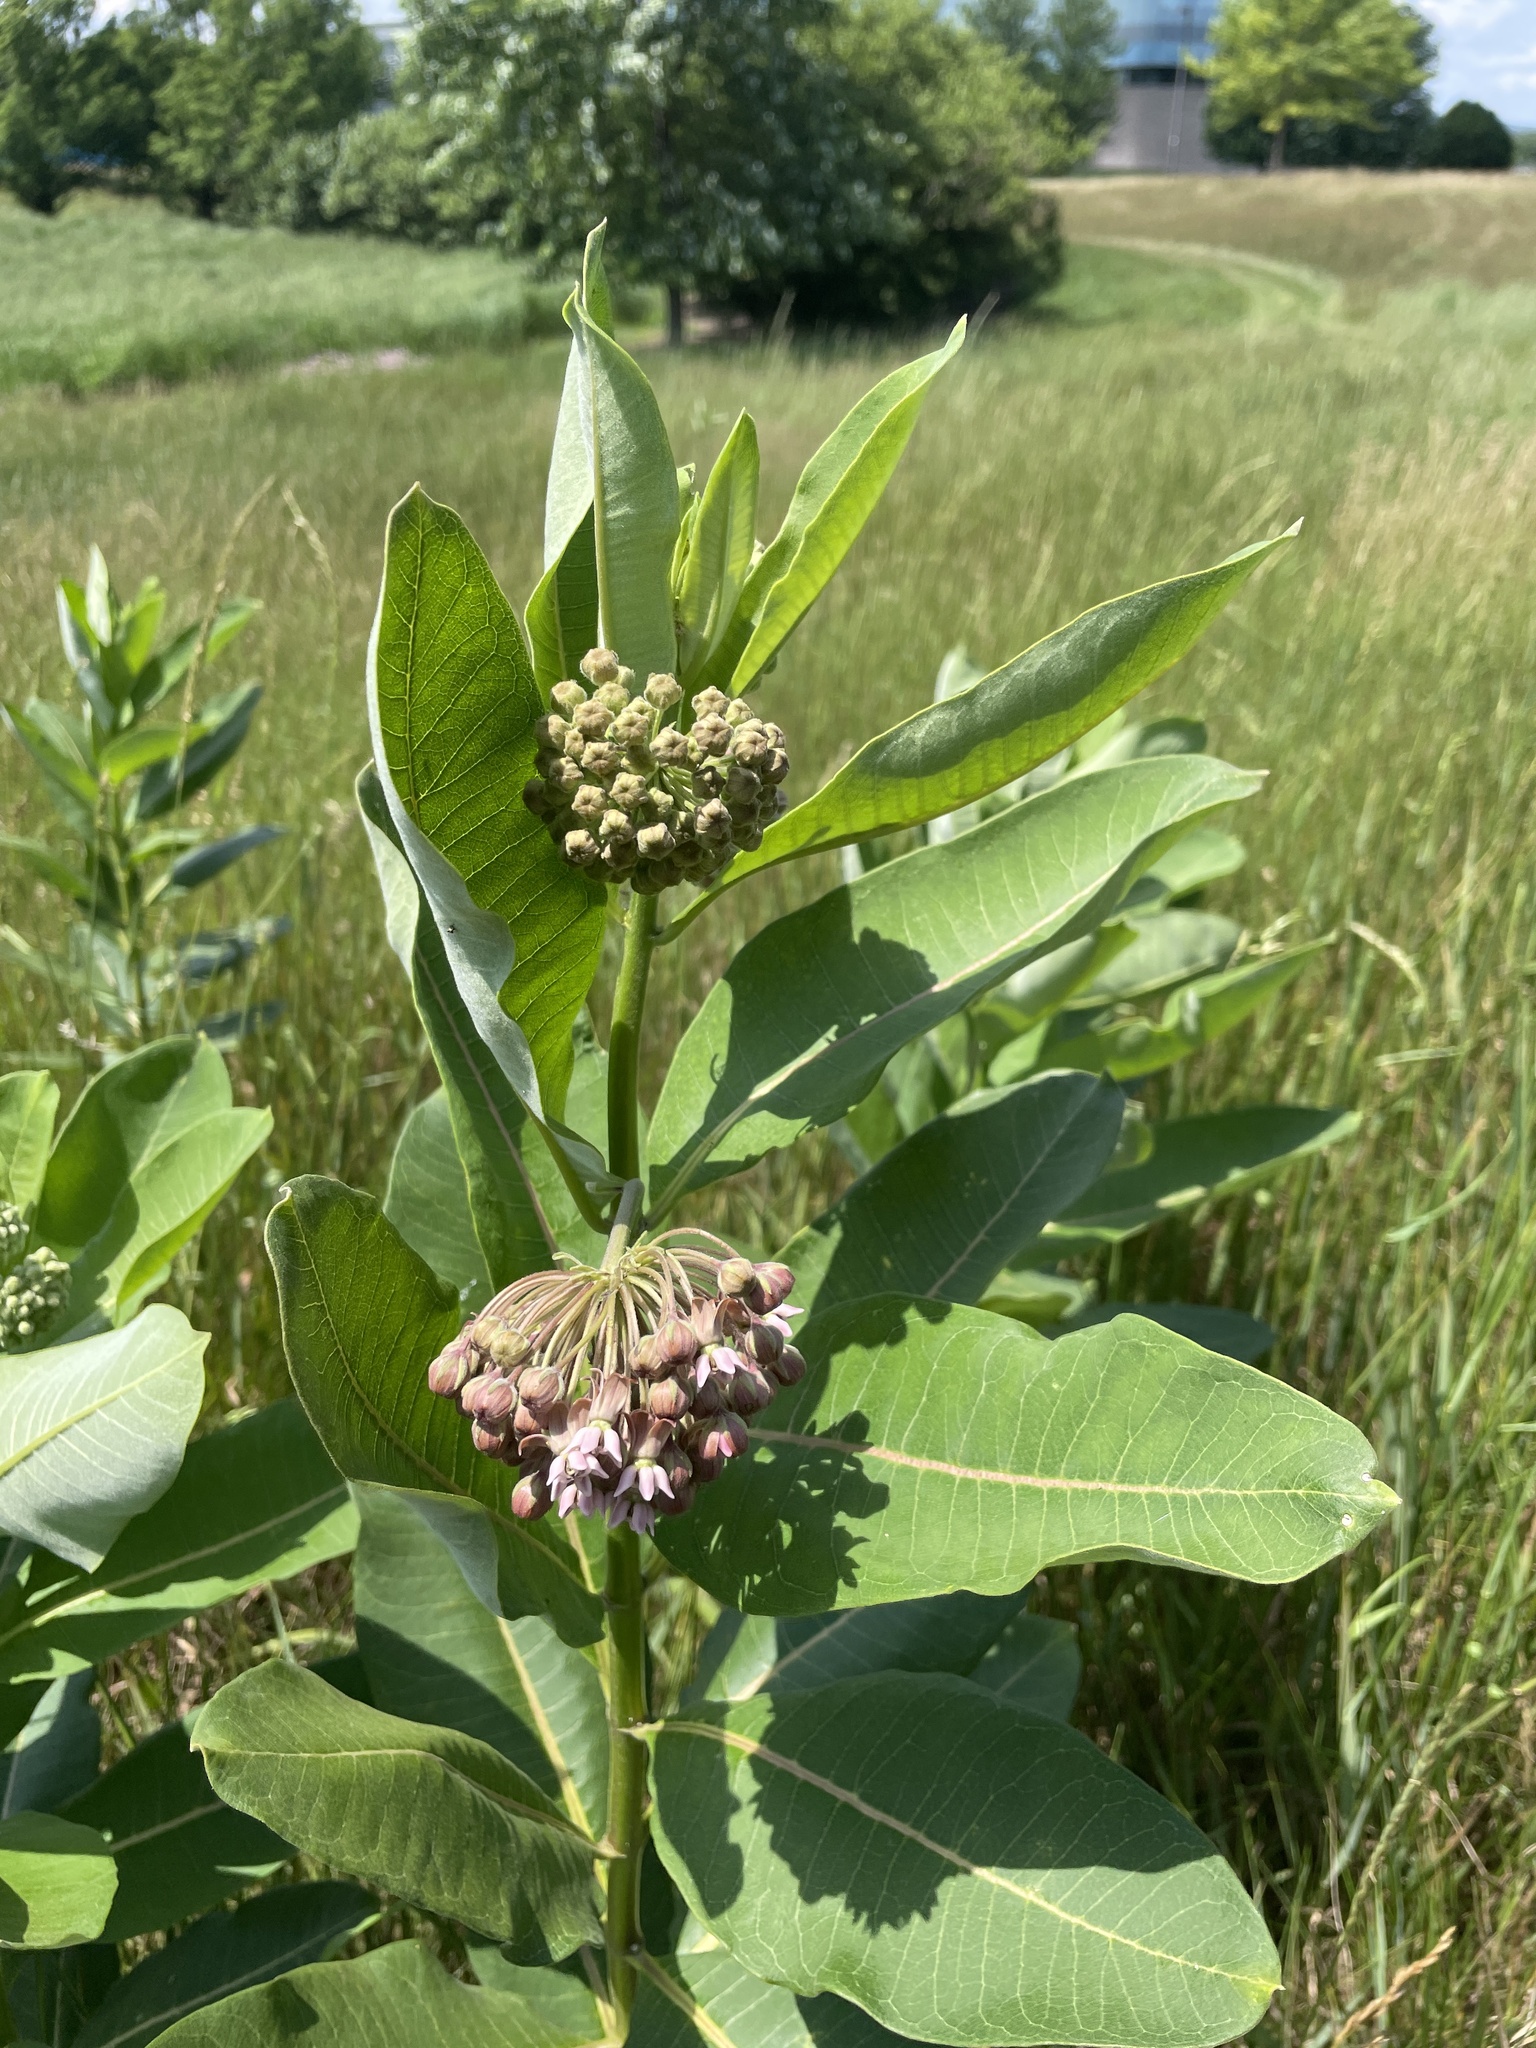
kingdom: Plantae
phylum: Tracheophyta
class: Magnoliopsida
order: Gentianales
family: Apocynaceae
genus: Asclepias
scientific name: Asclepias syriaca
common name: Common milkweed
